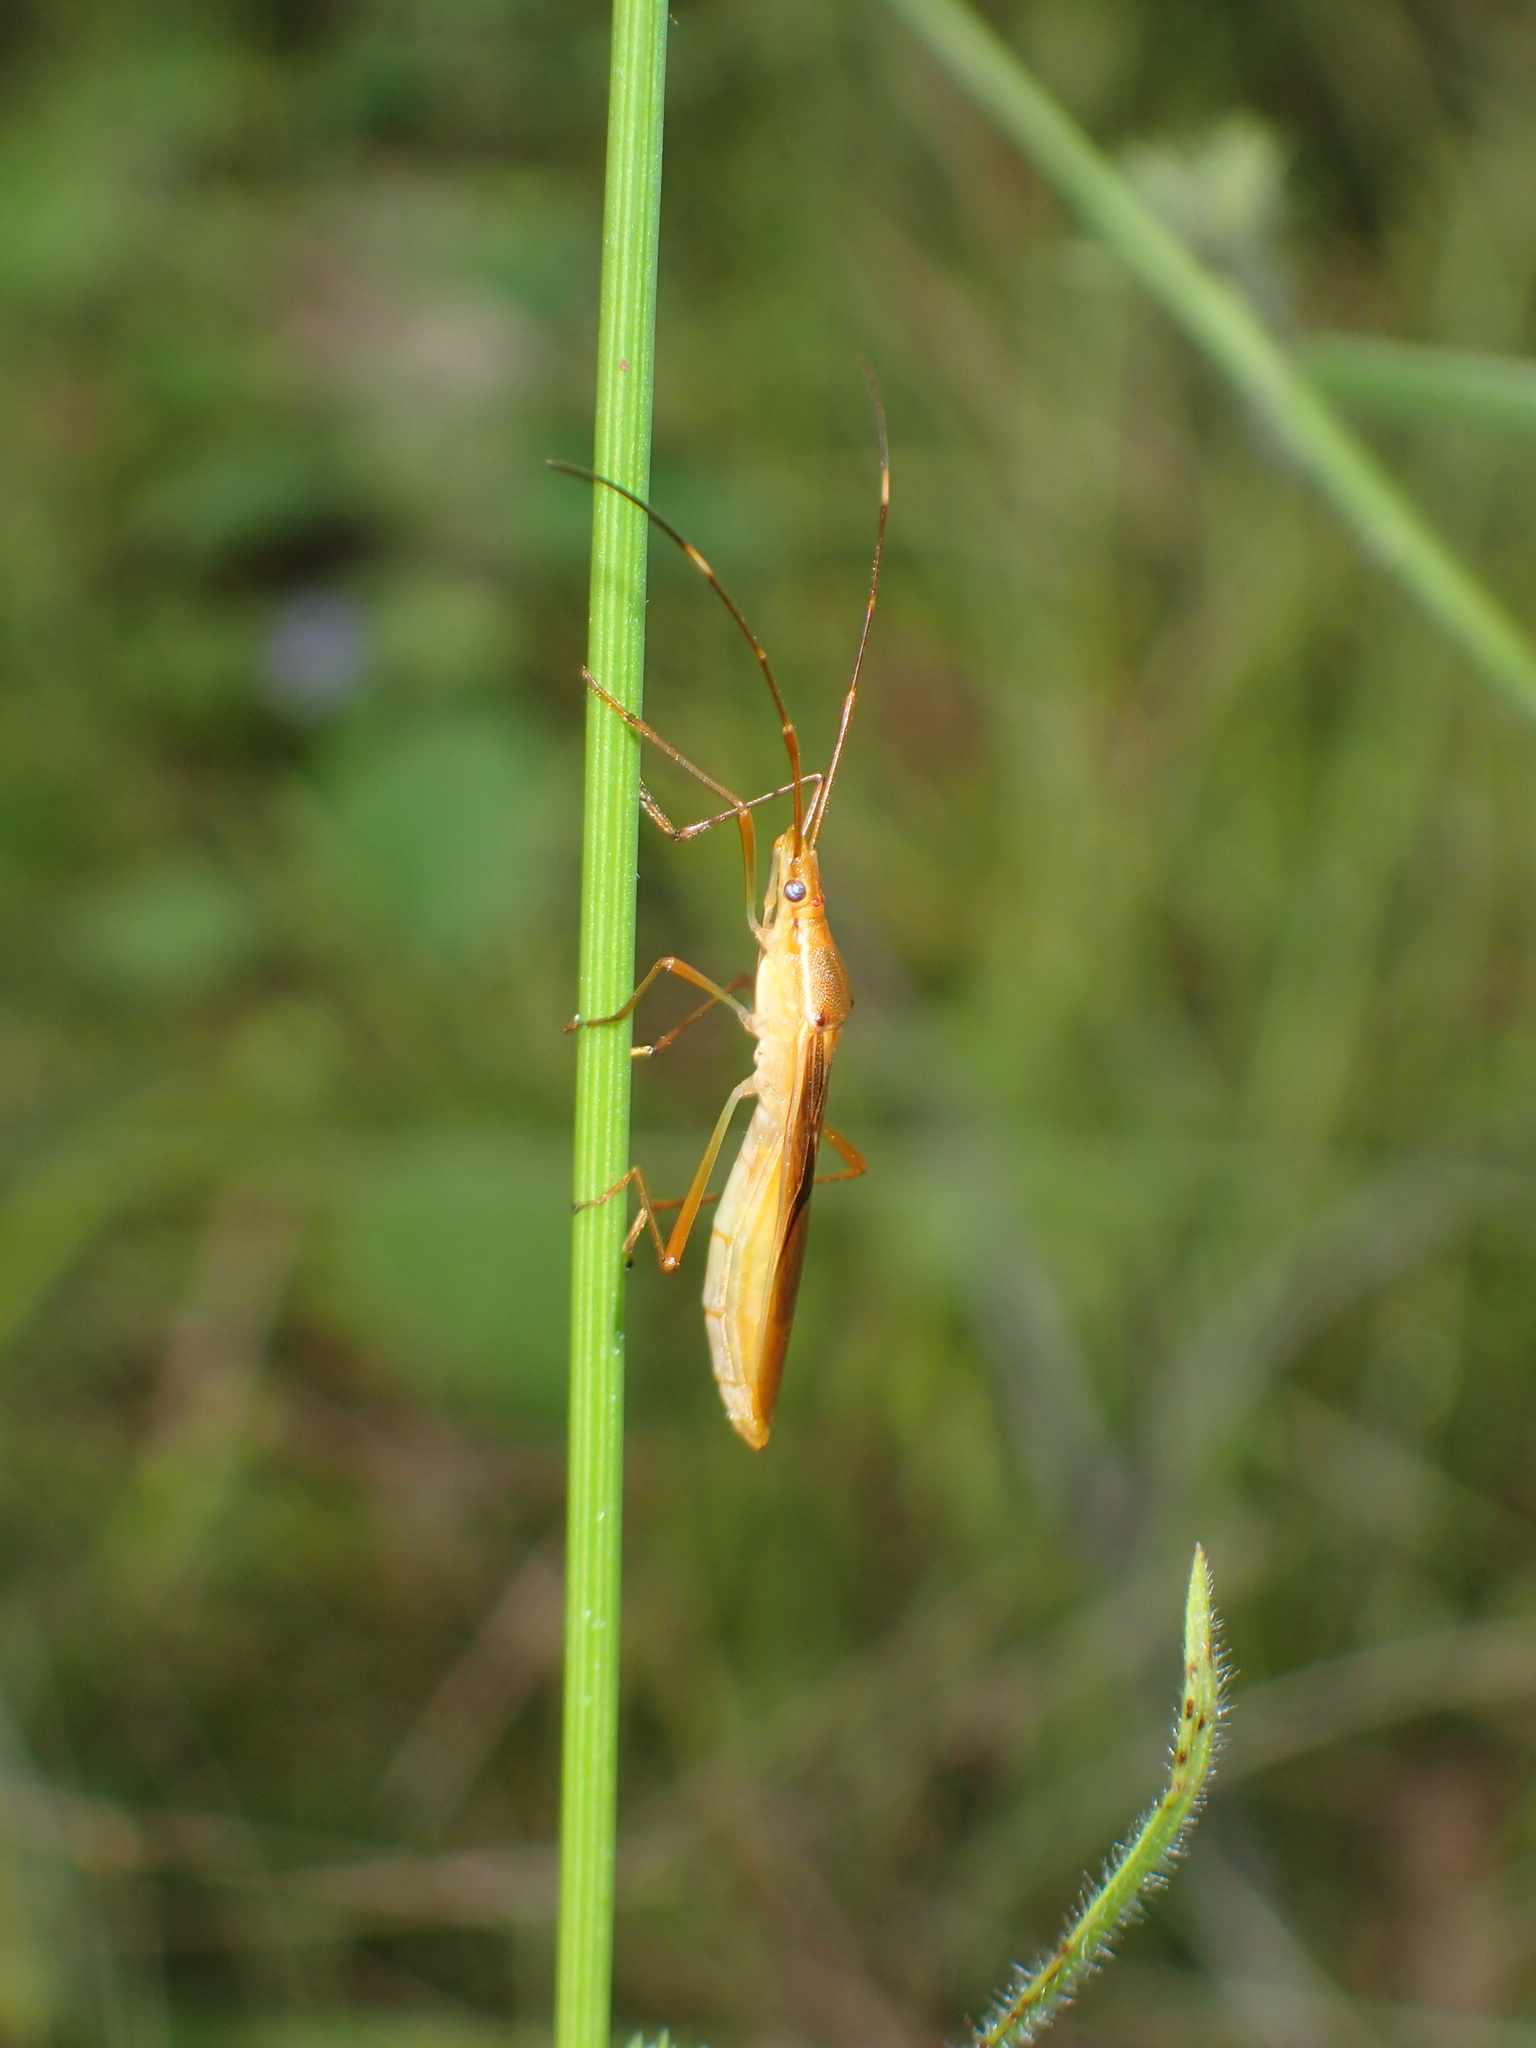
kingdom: Animalia
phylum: Arthropoda
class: Insecta
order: Hemiptera
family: Alydidae
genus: Leptocorisa
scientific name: Leptocorisa acuta
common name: Gandhi bug
